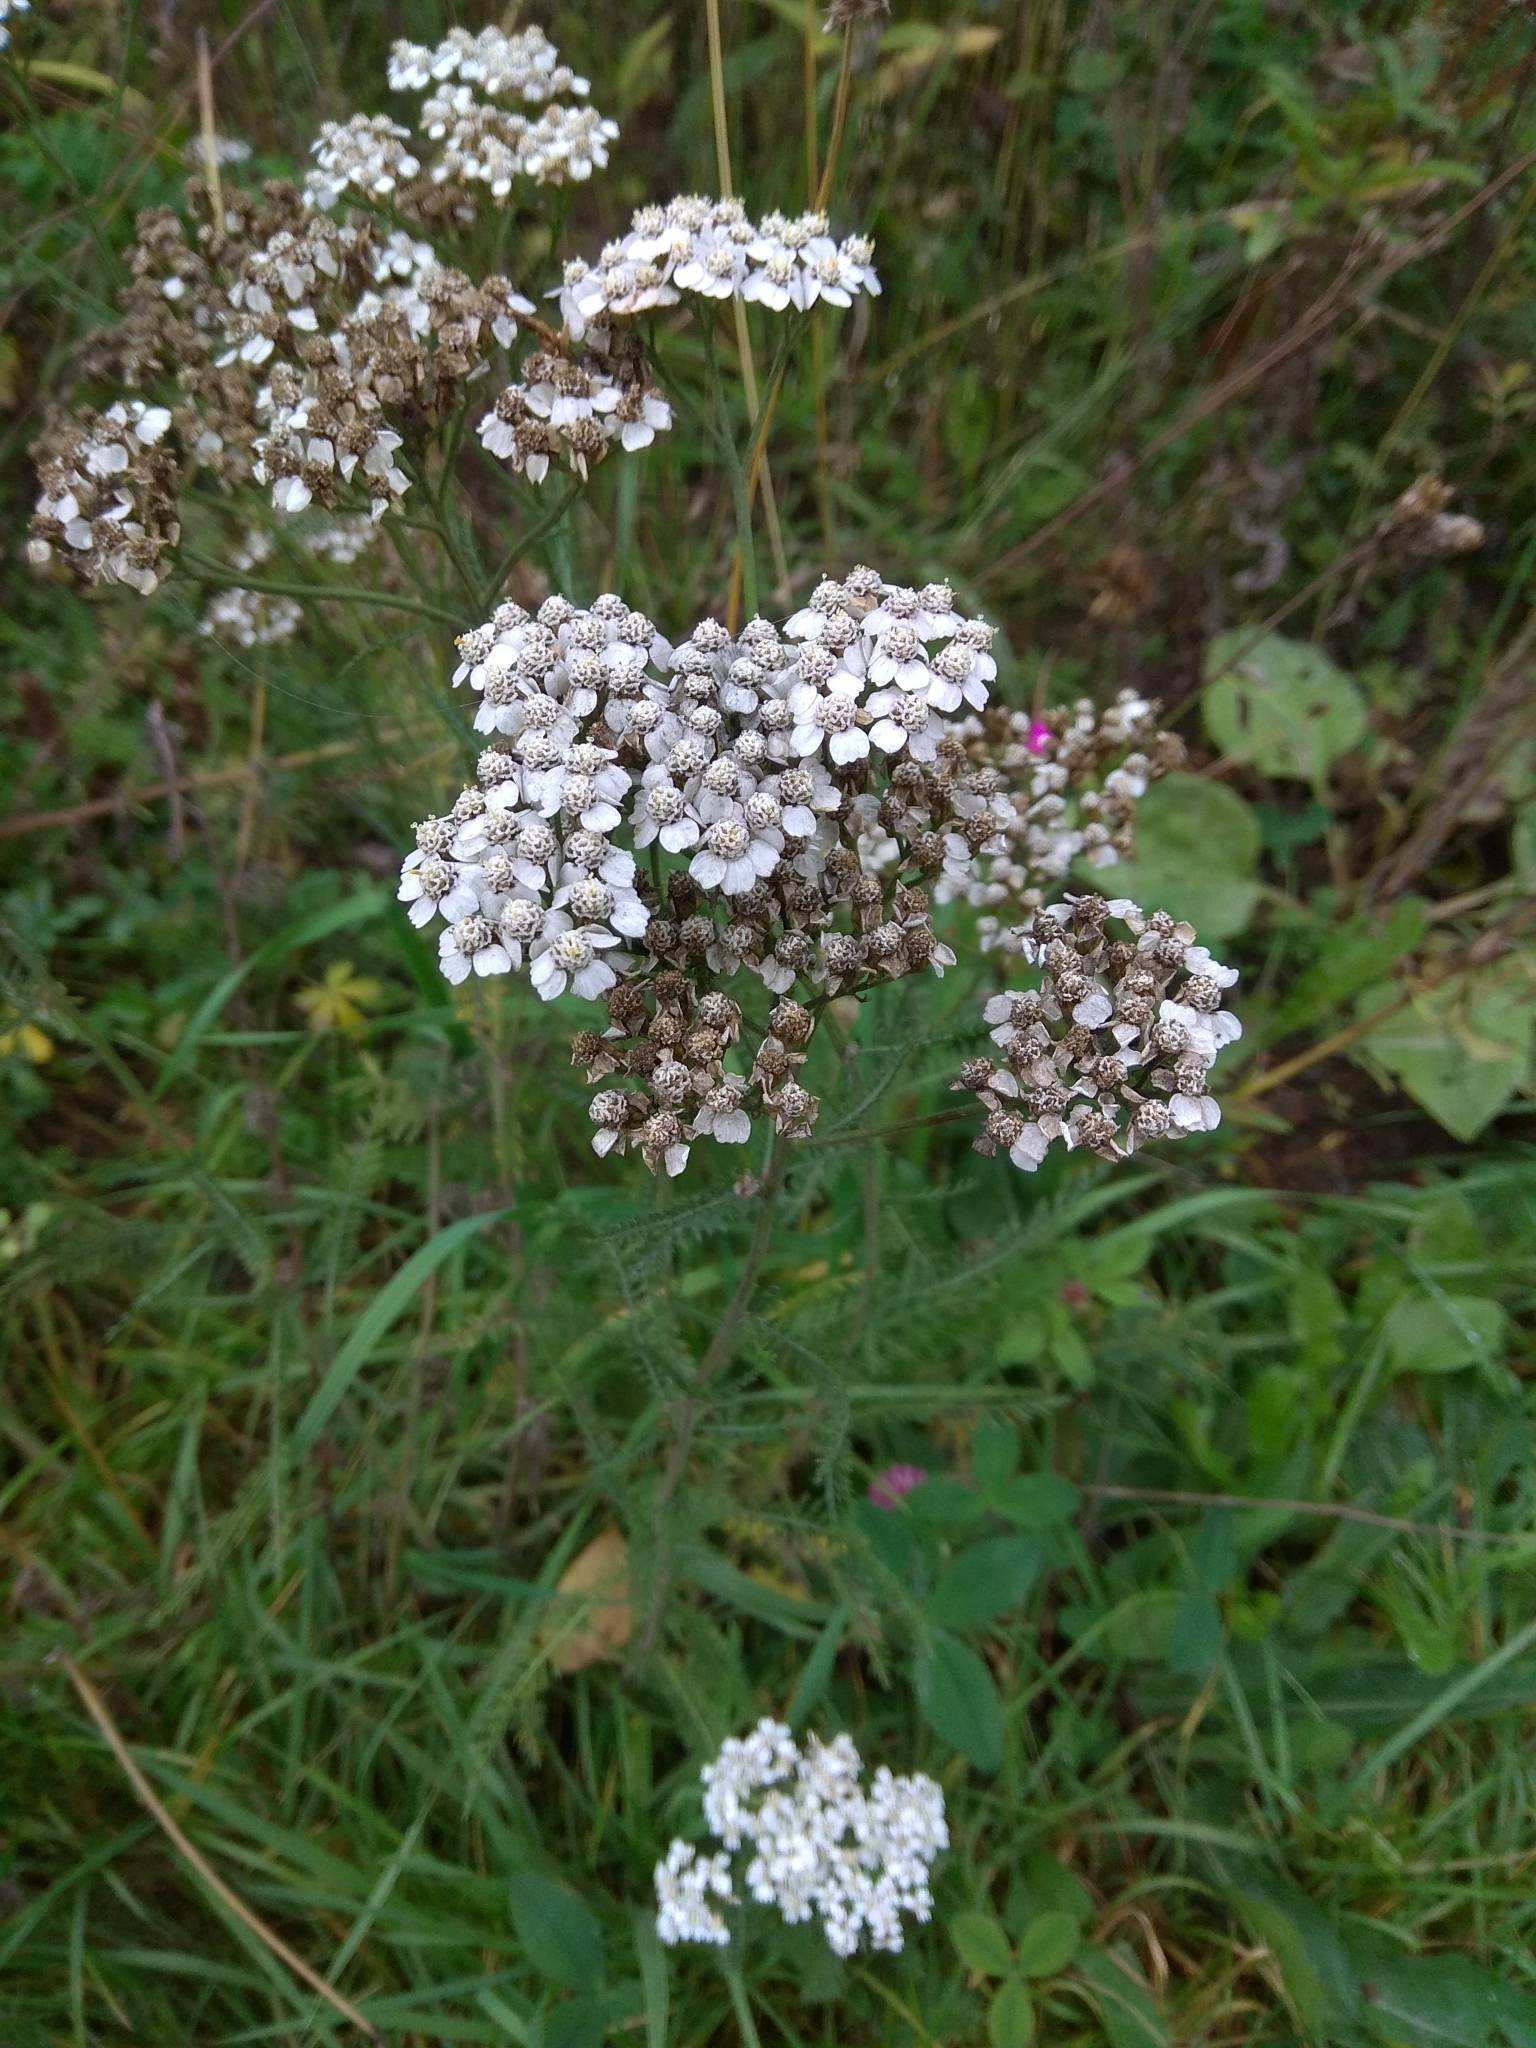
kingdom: Plantae
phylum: Tracheophyta
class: Magnoliopsida
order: Asterales
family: Asteraceae
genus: Achillea
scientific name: Achillea millefolium
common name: Yarrow
